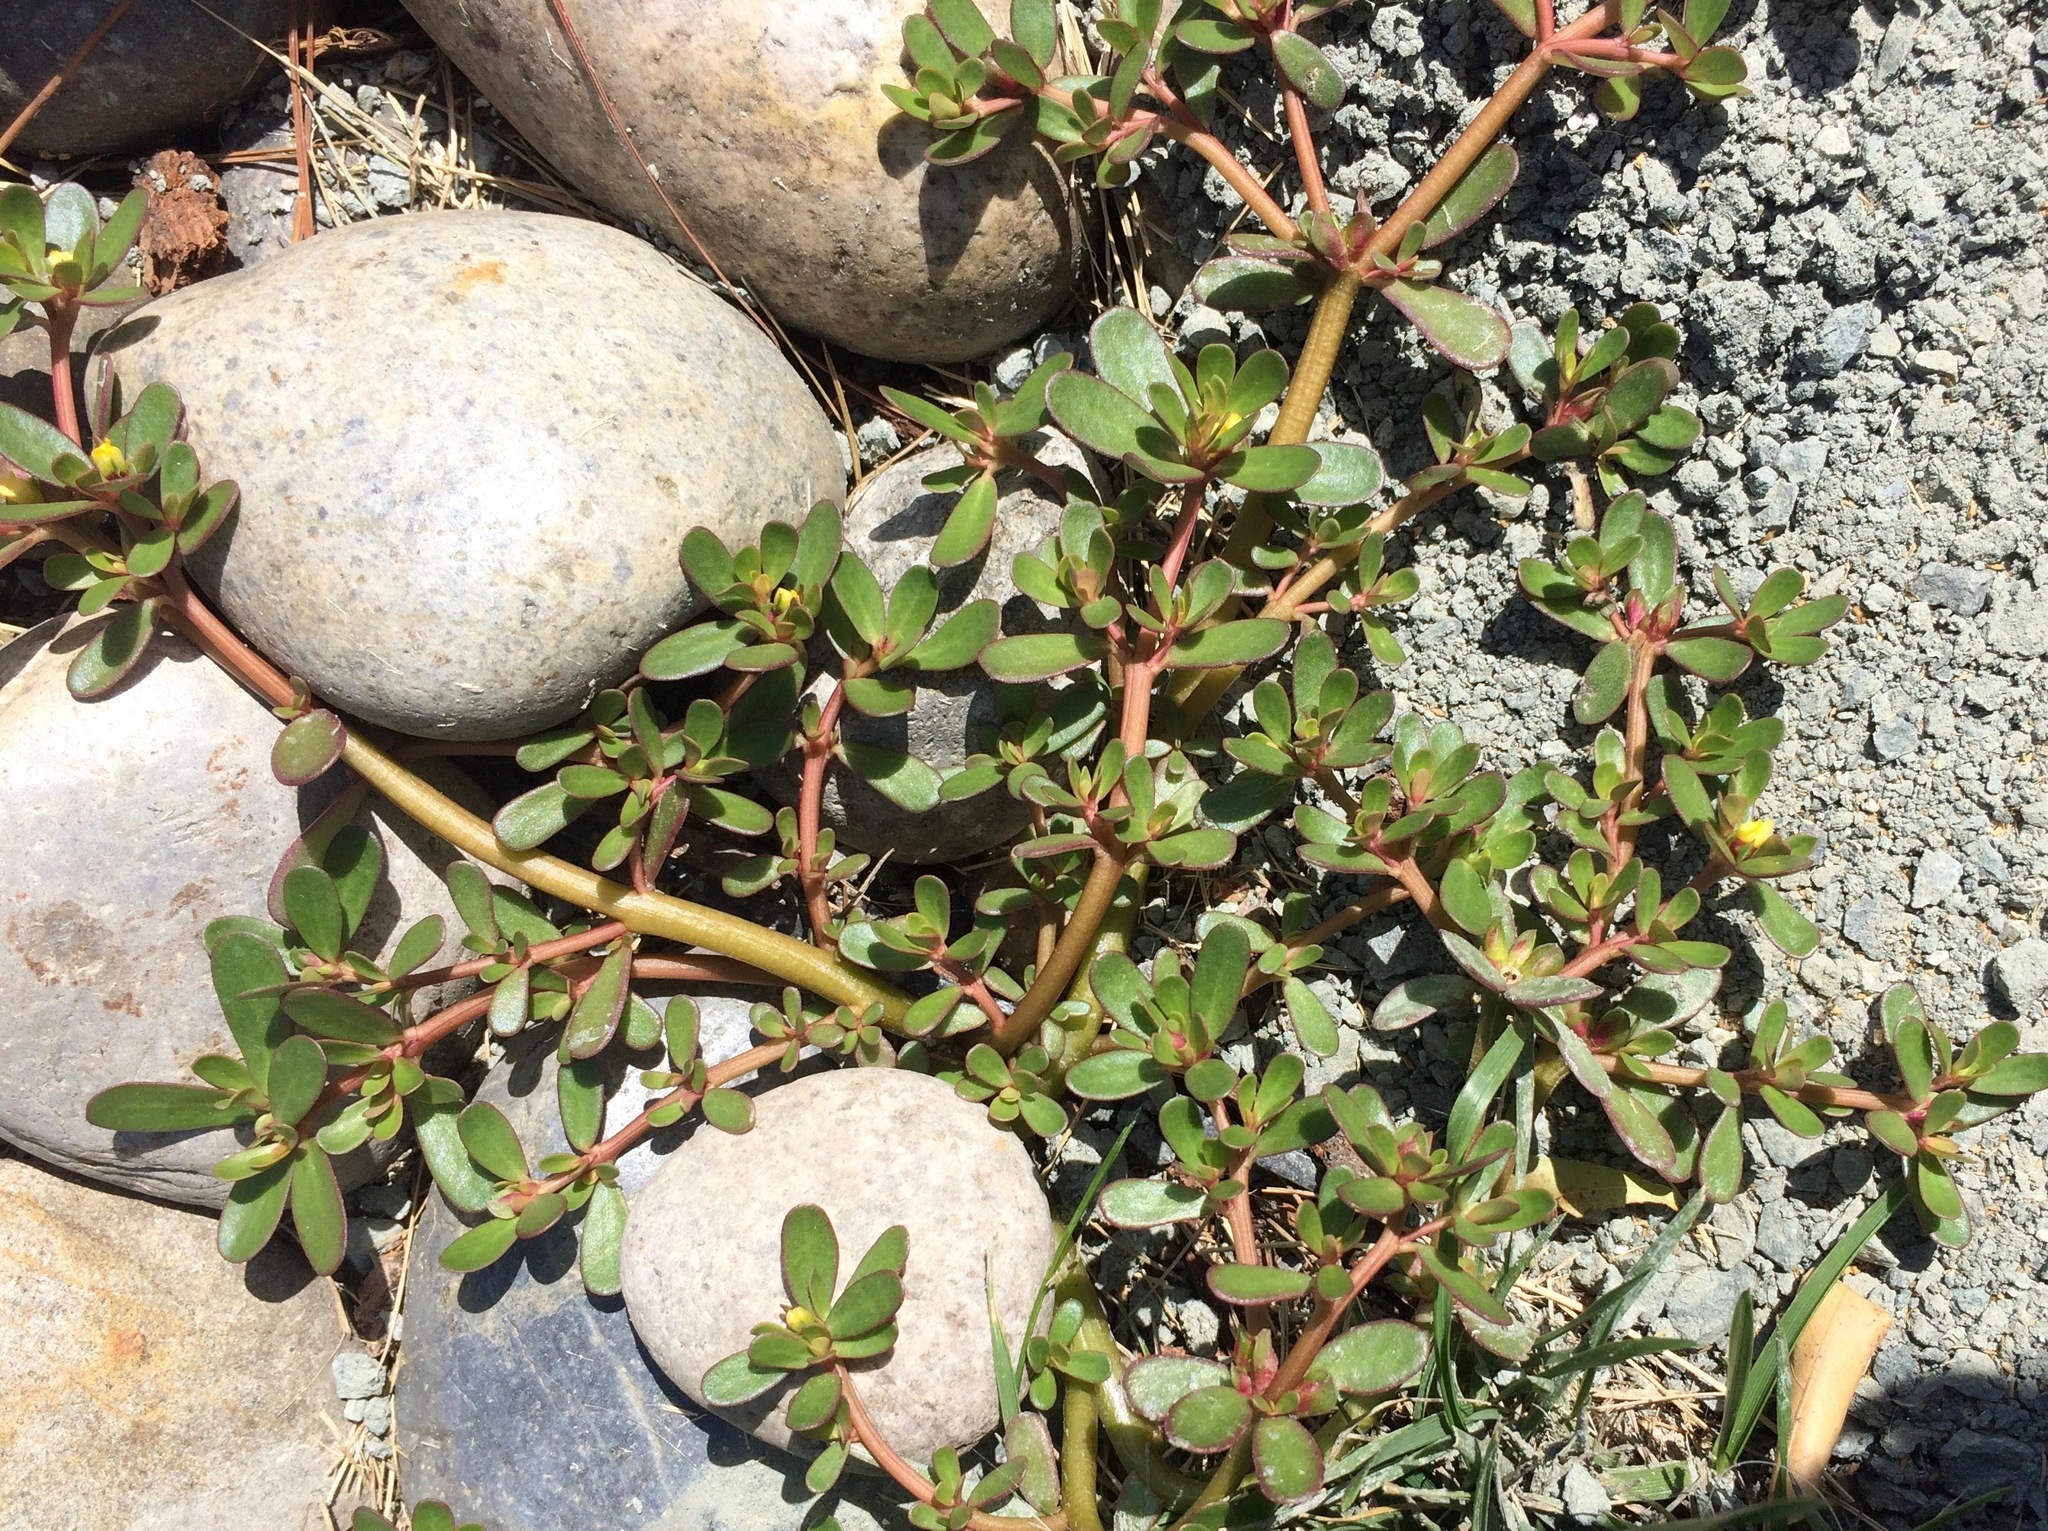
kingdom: Plantae
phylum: Tracheophyta
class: Magnoliopsida
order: Caryophyllales
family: Portulacaceae
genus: Portulaca
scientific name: Portulaca oleracea
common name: Common purslane
